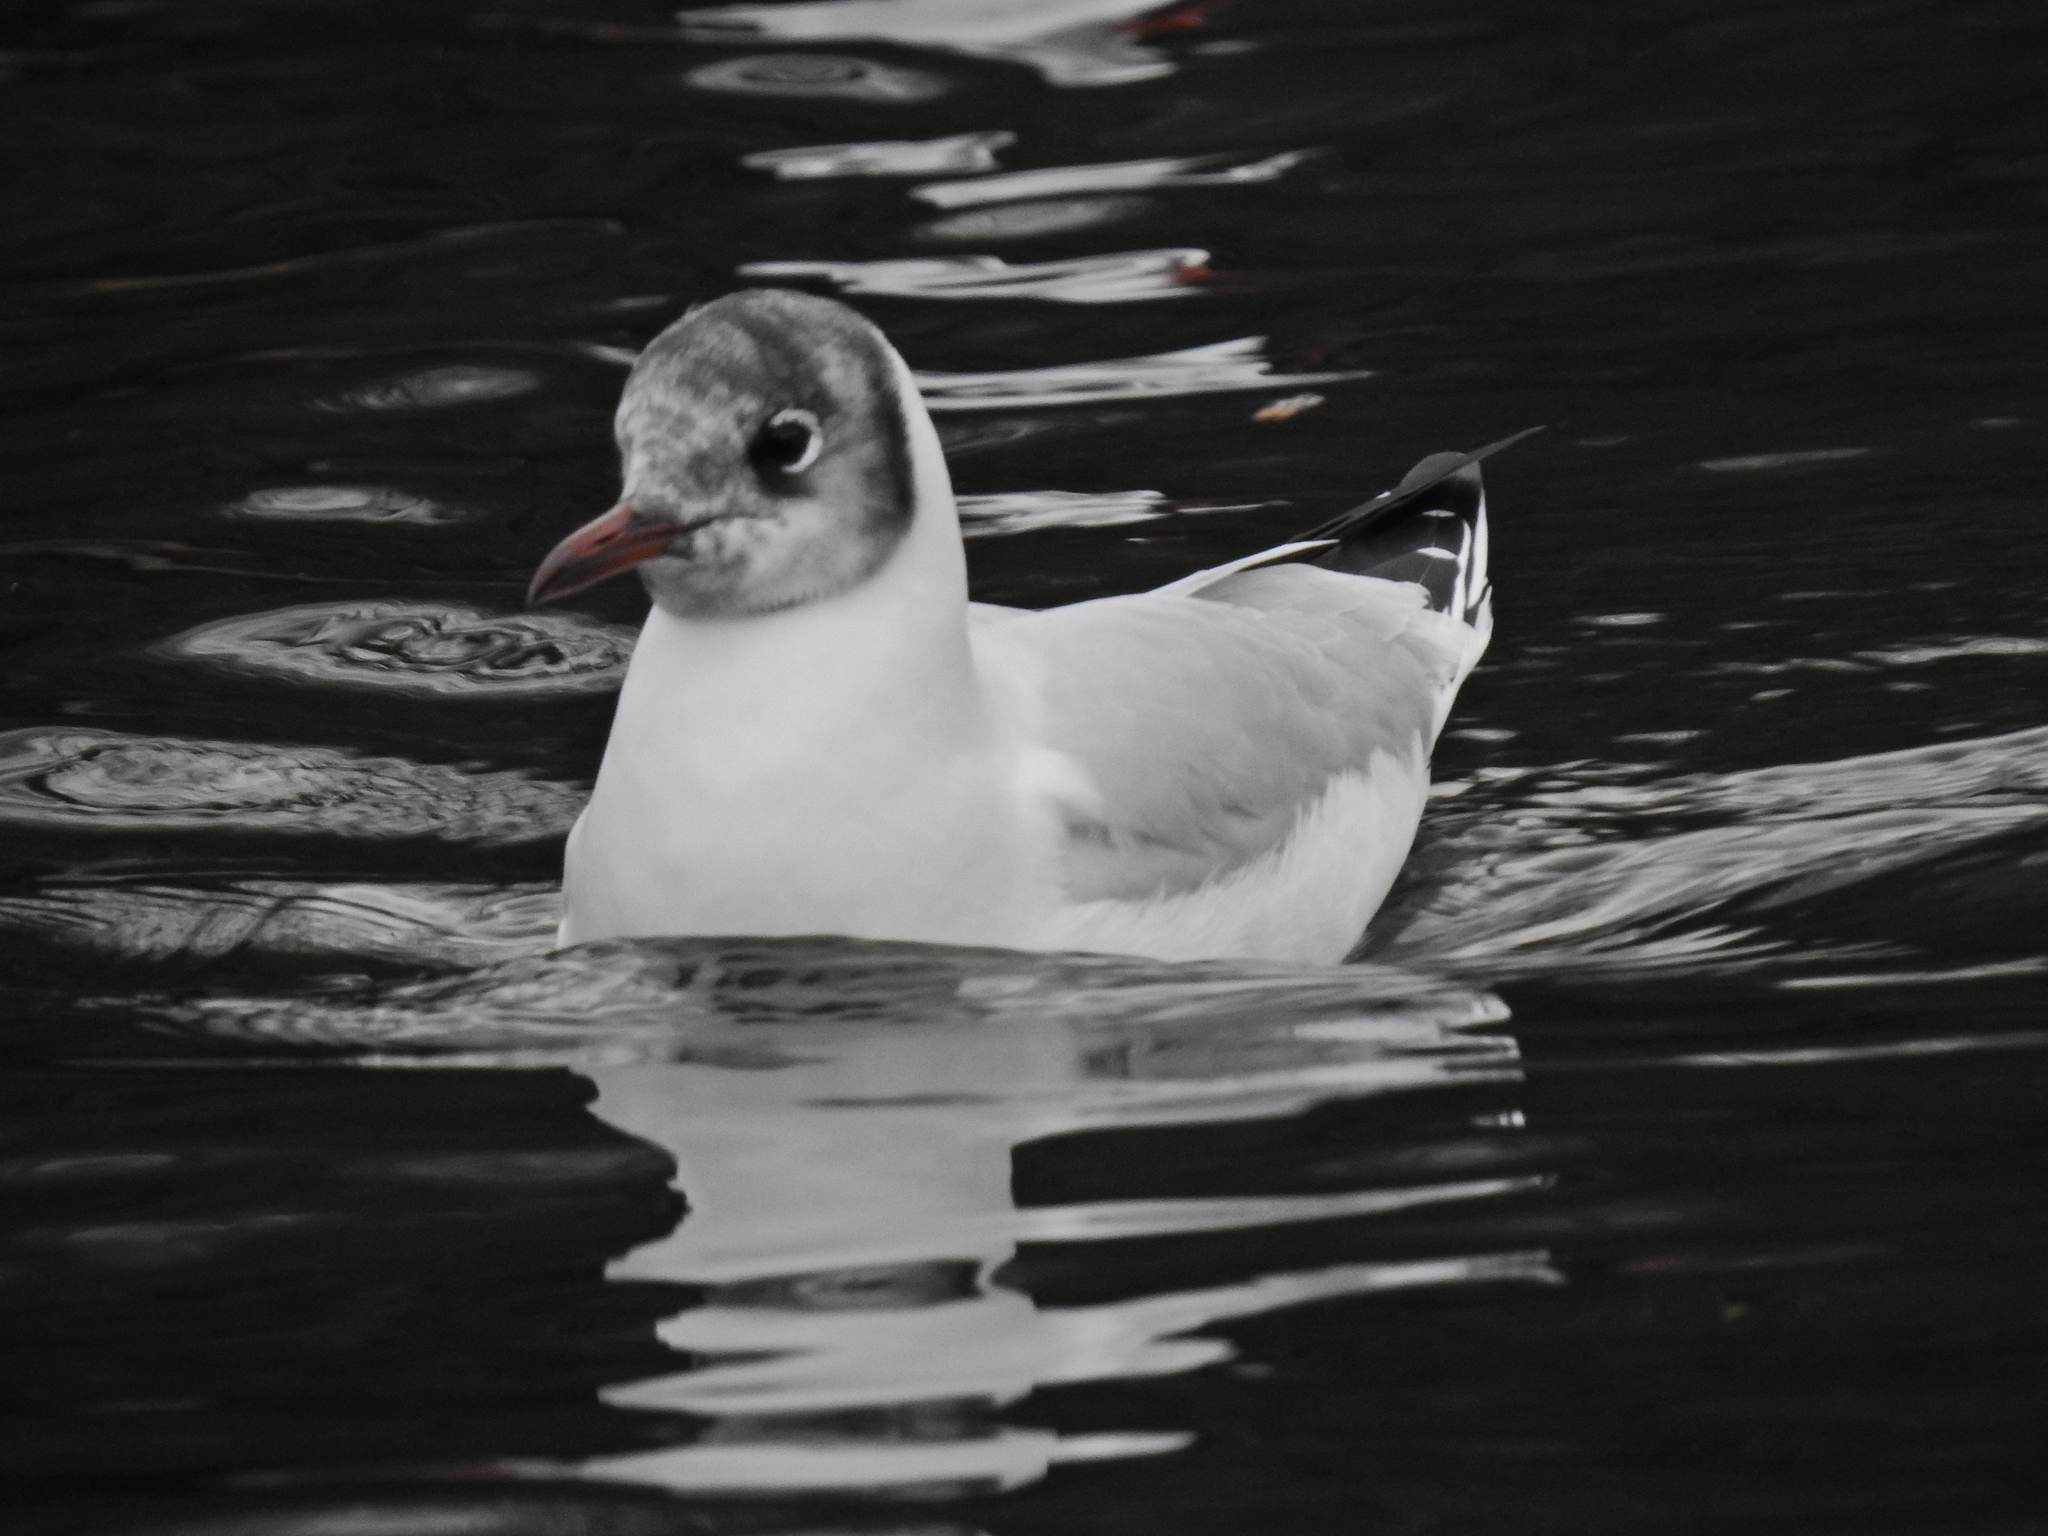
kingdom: Animalia
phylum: Chordata
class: Aves
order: Charadriiformes
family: Laridae
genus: Chroicocephalus
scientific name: Chroicocephalus ridibundus
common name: Black-headed gull
